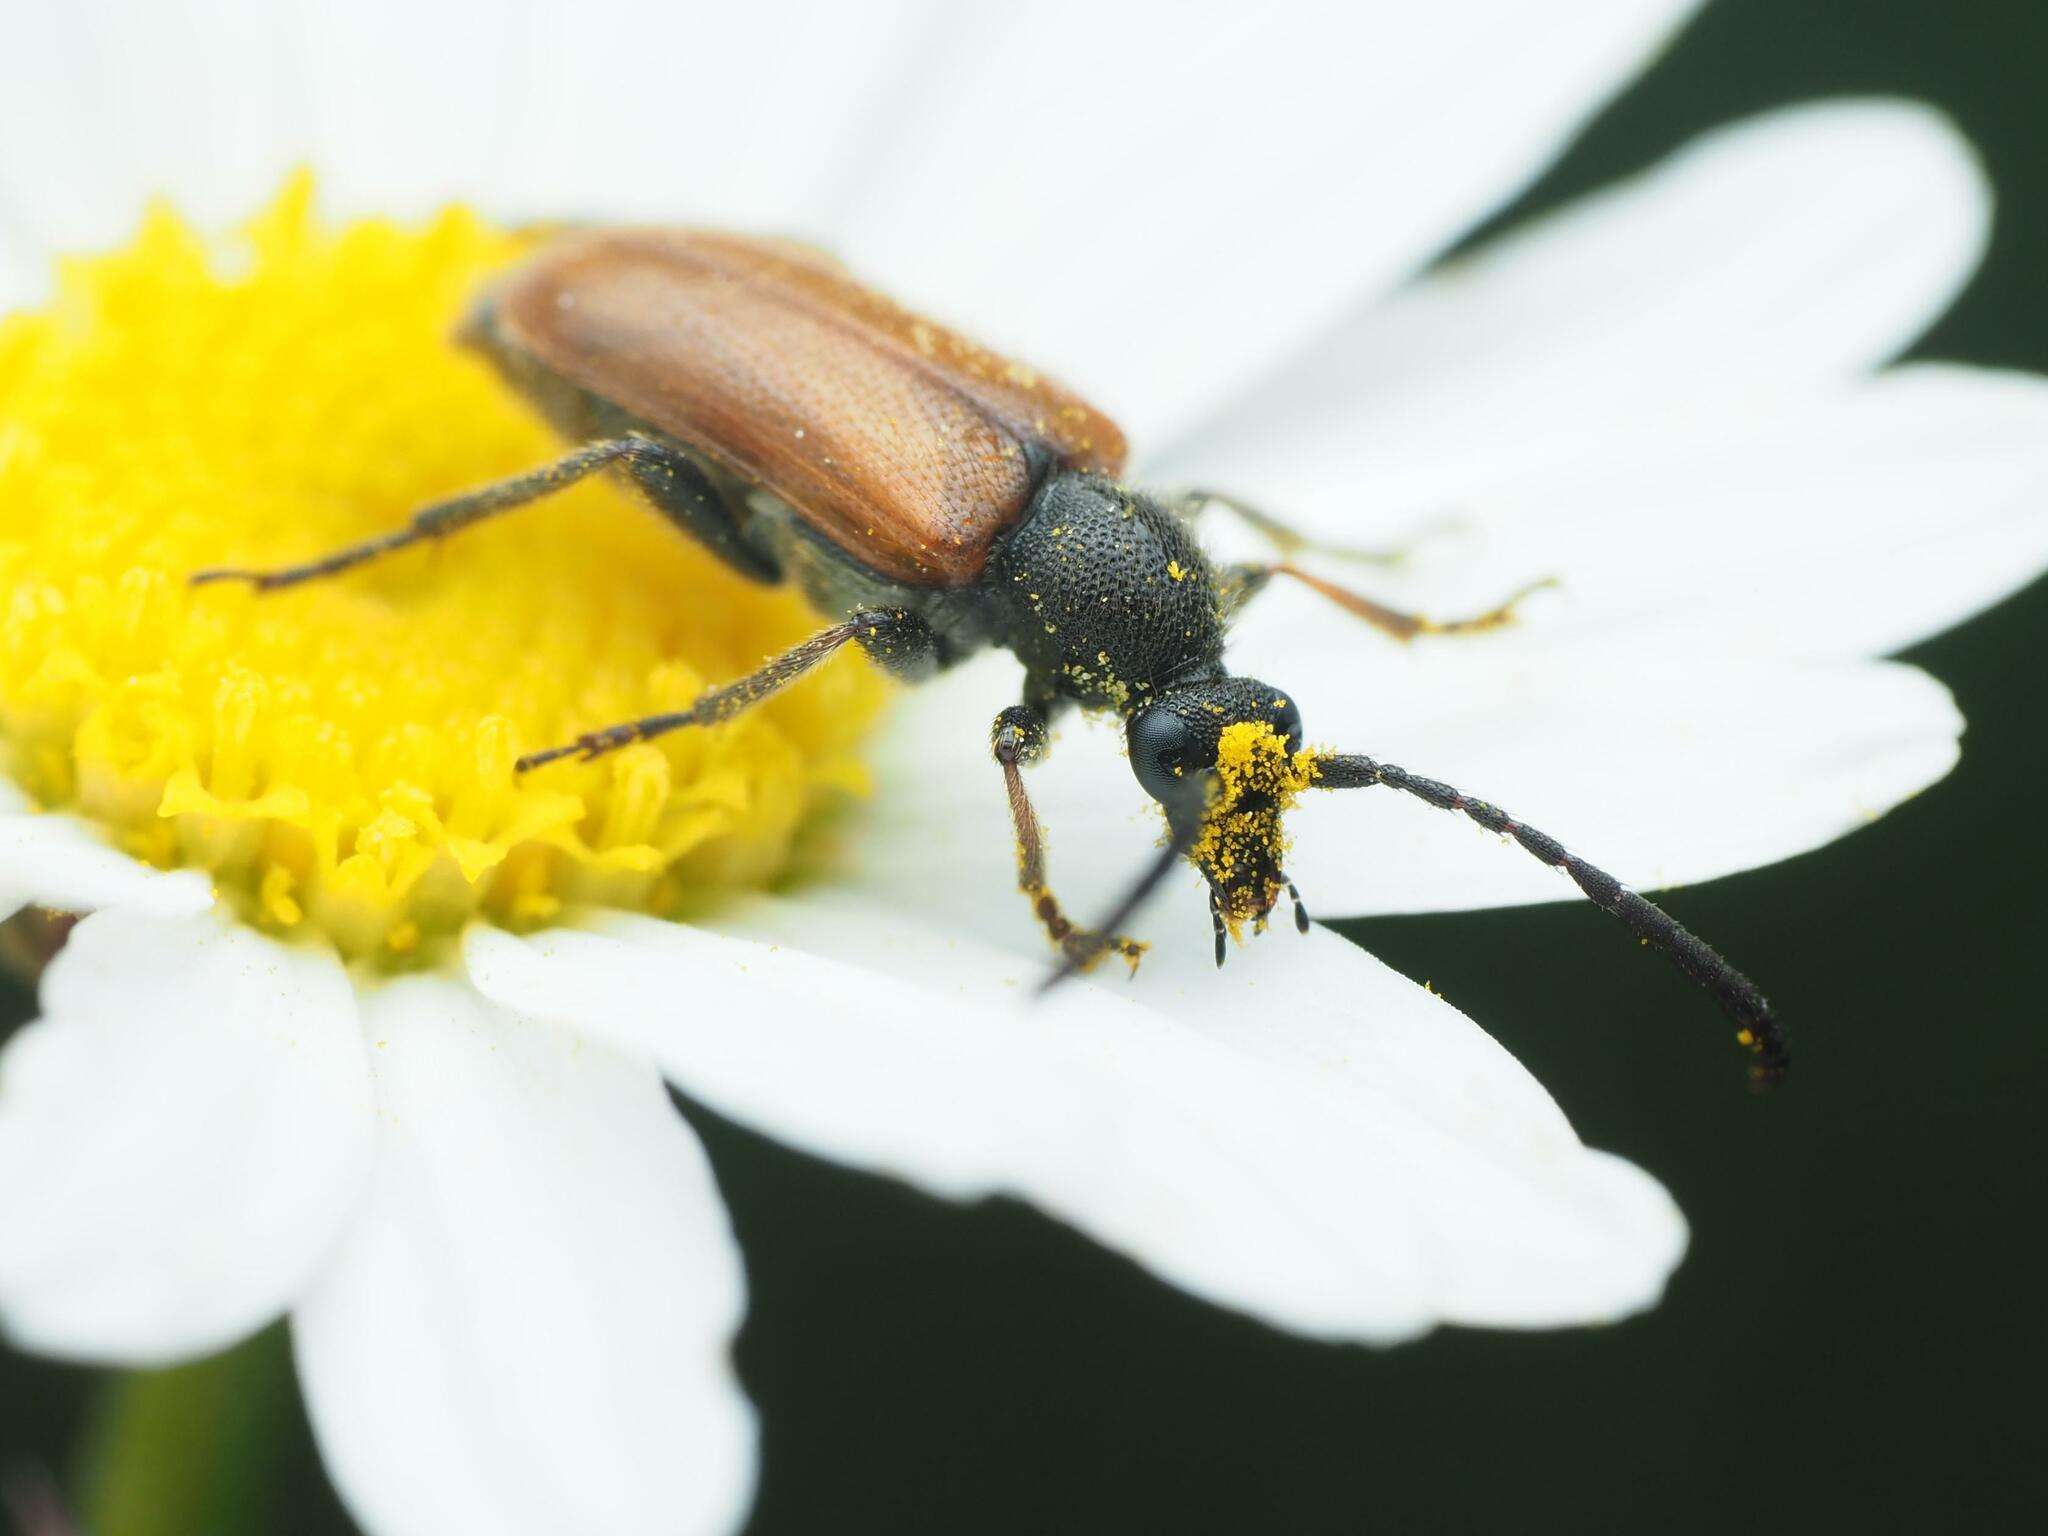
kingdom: Animalia
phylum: Arthropoda
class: Insecta
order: Coleoptera
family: Cerambycidae
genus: Pseudovadonia
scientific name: Pseudovadonia livida
